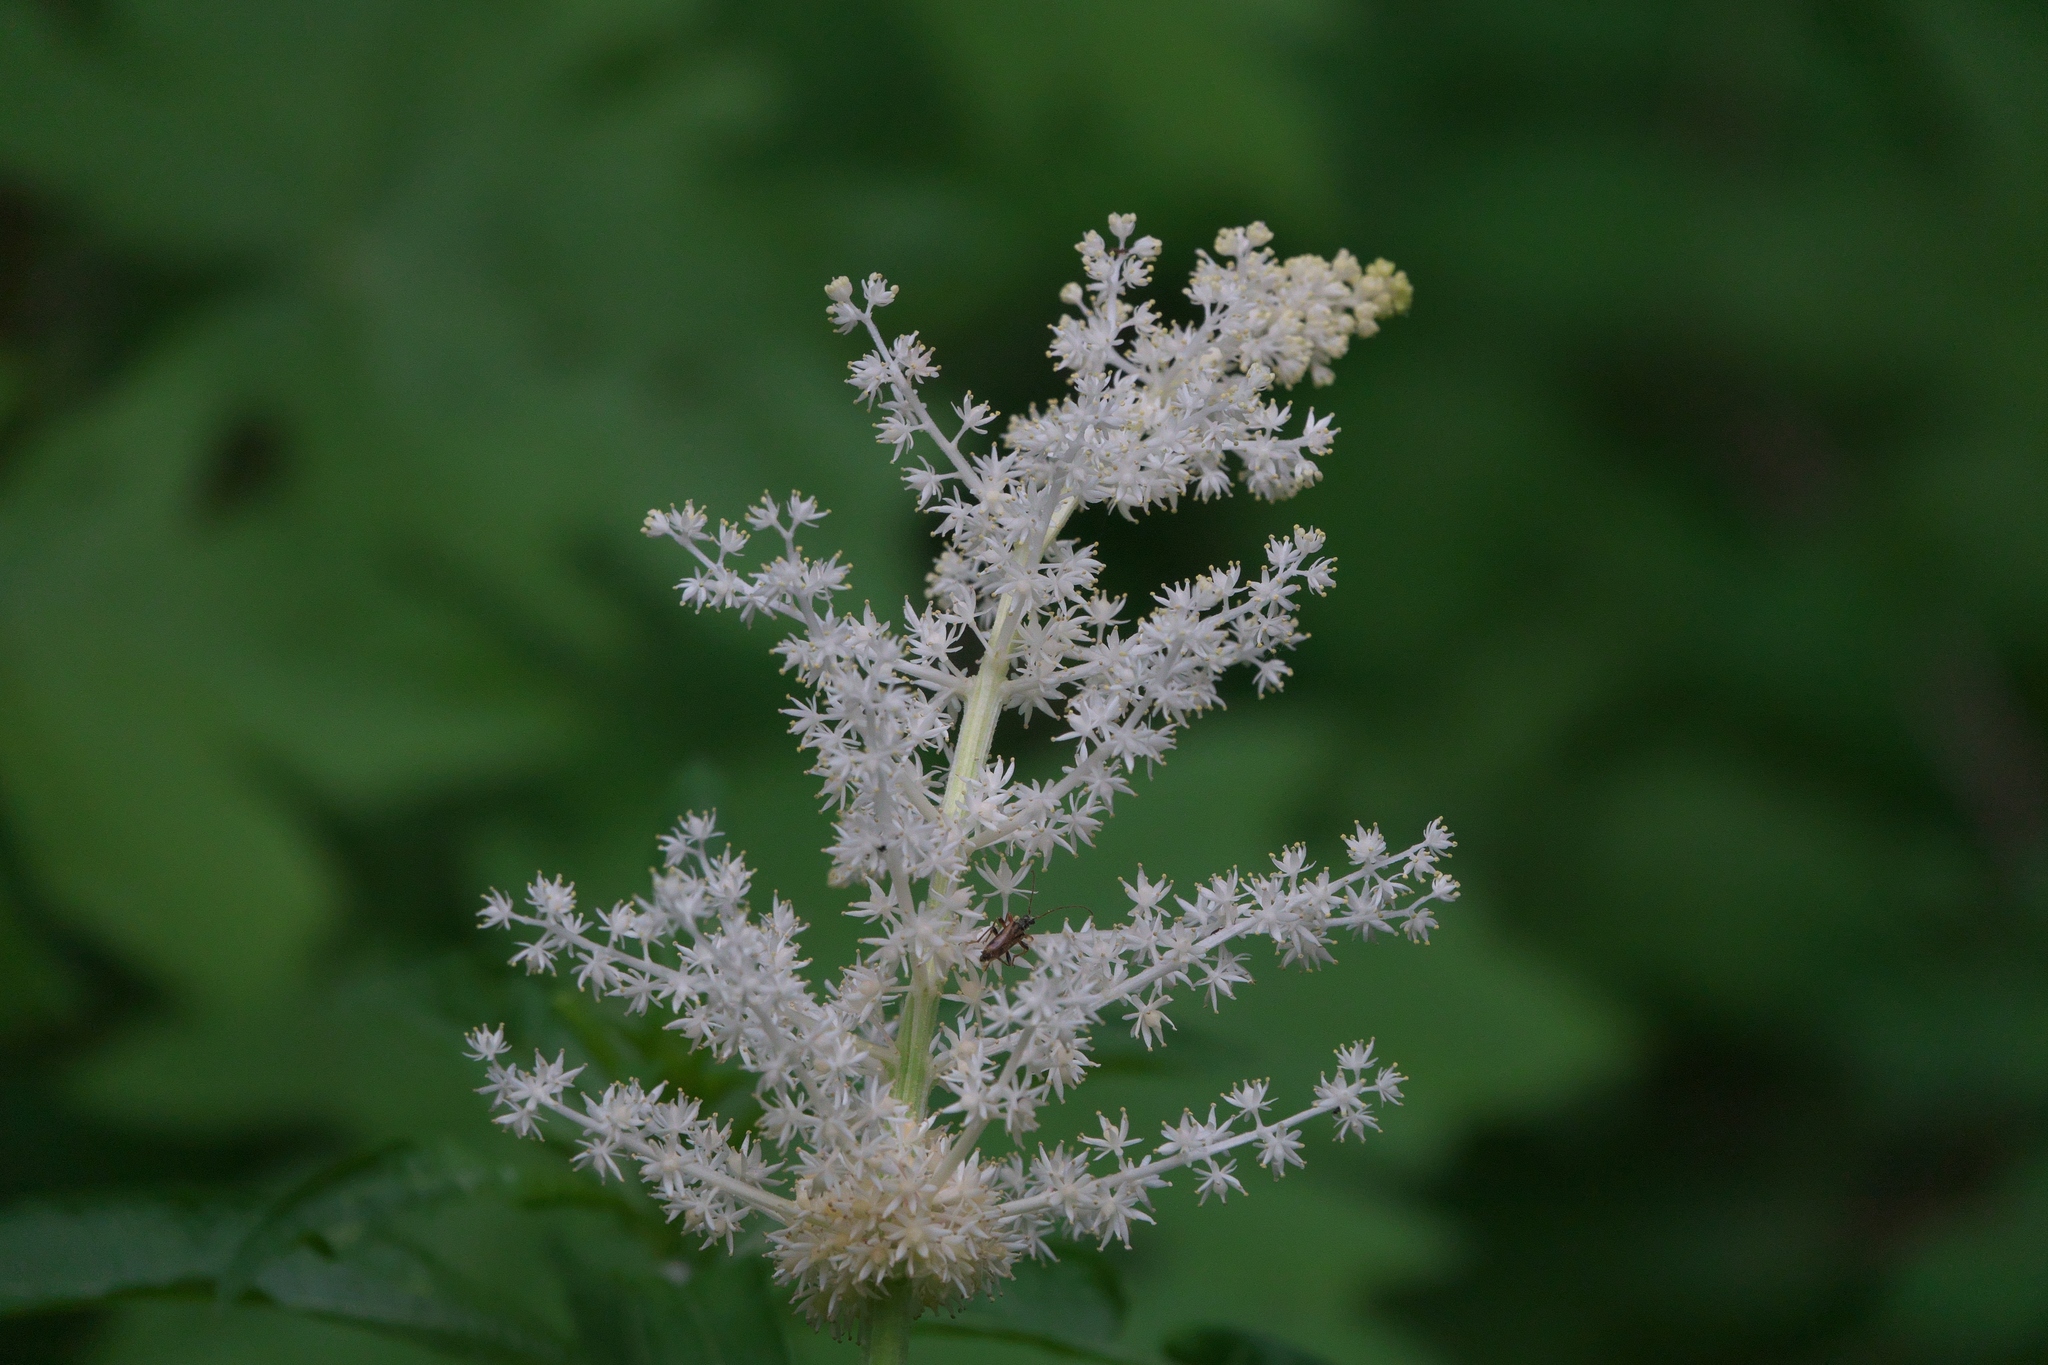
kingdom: Plantae
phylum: Tracheophyta
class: Liliopsida
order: Asparagales
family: Asparagaceae
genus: Maianthemum
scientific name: Maianthemum racemosum
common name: False spikenard
